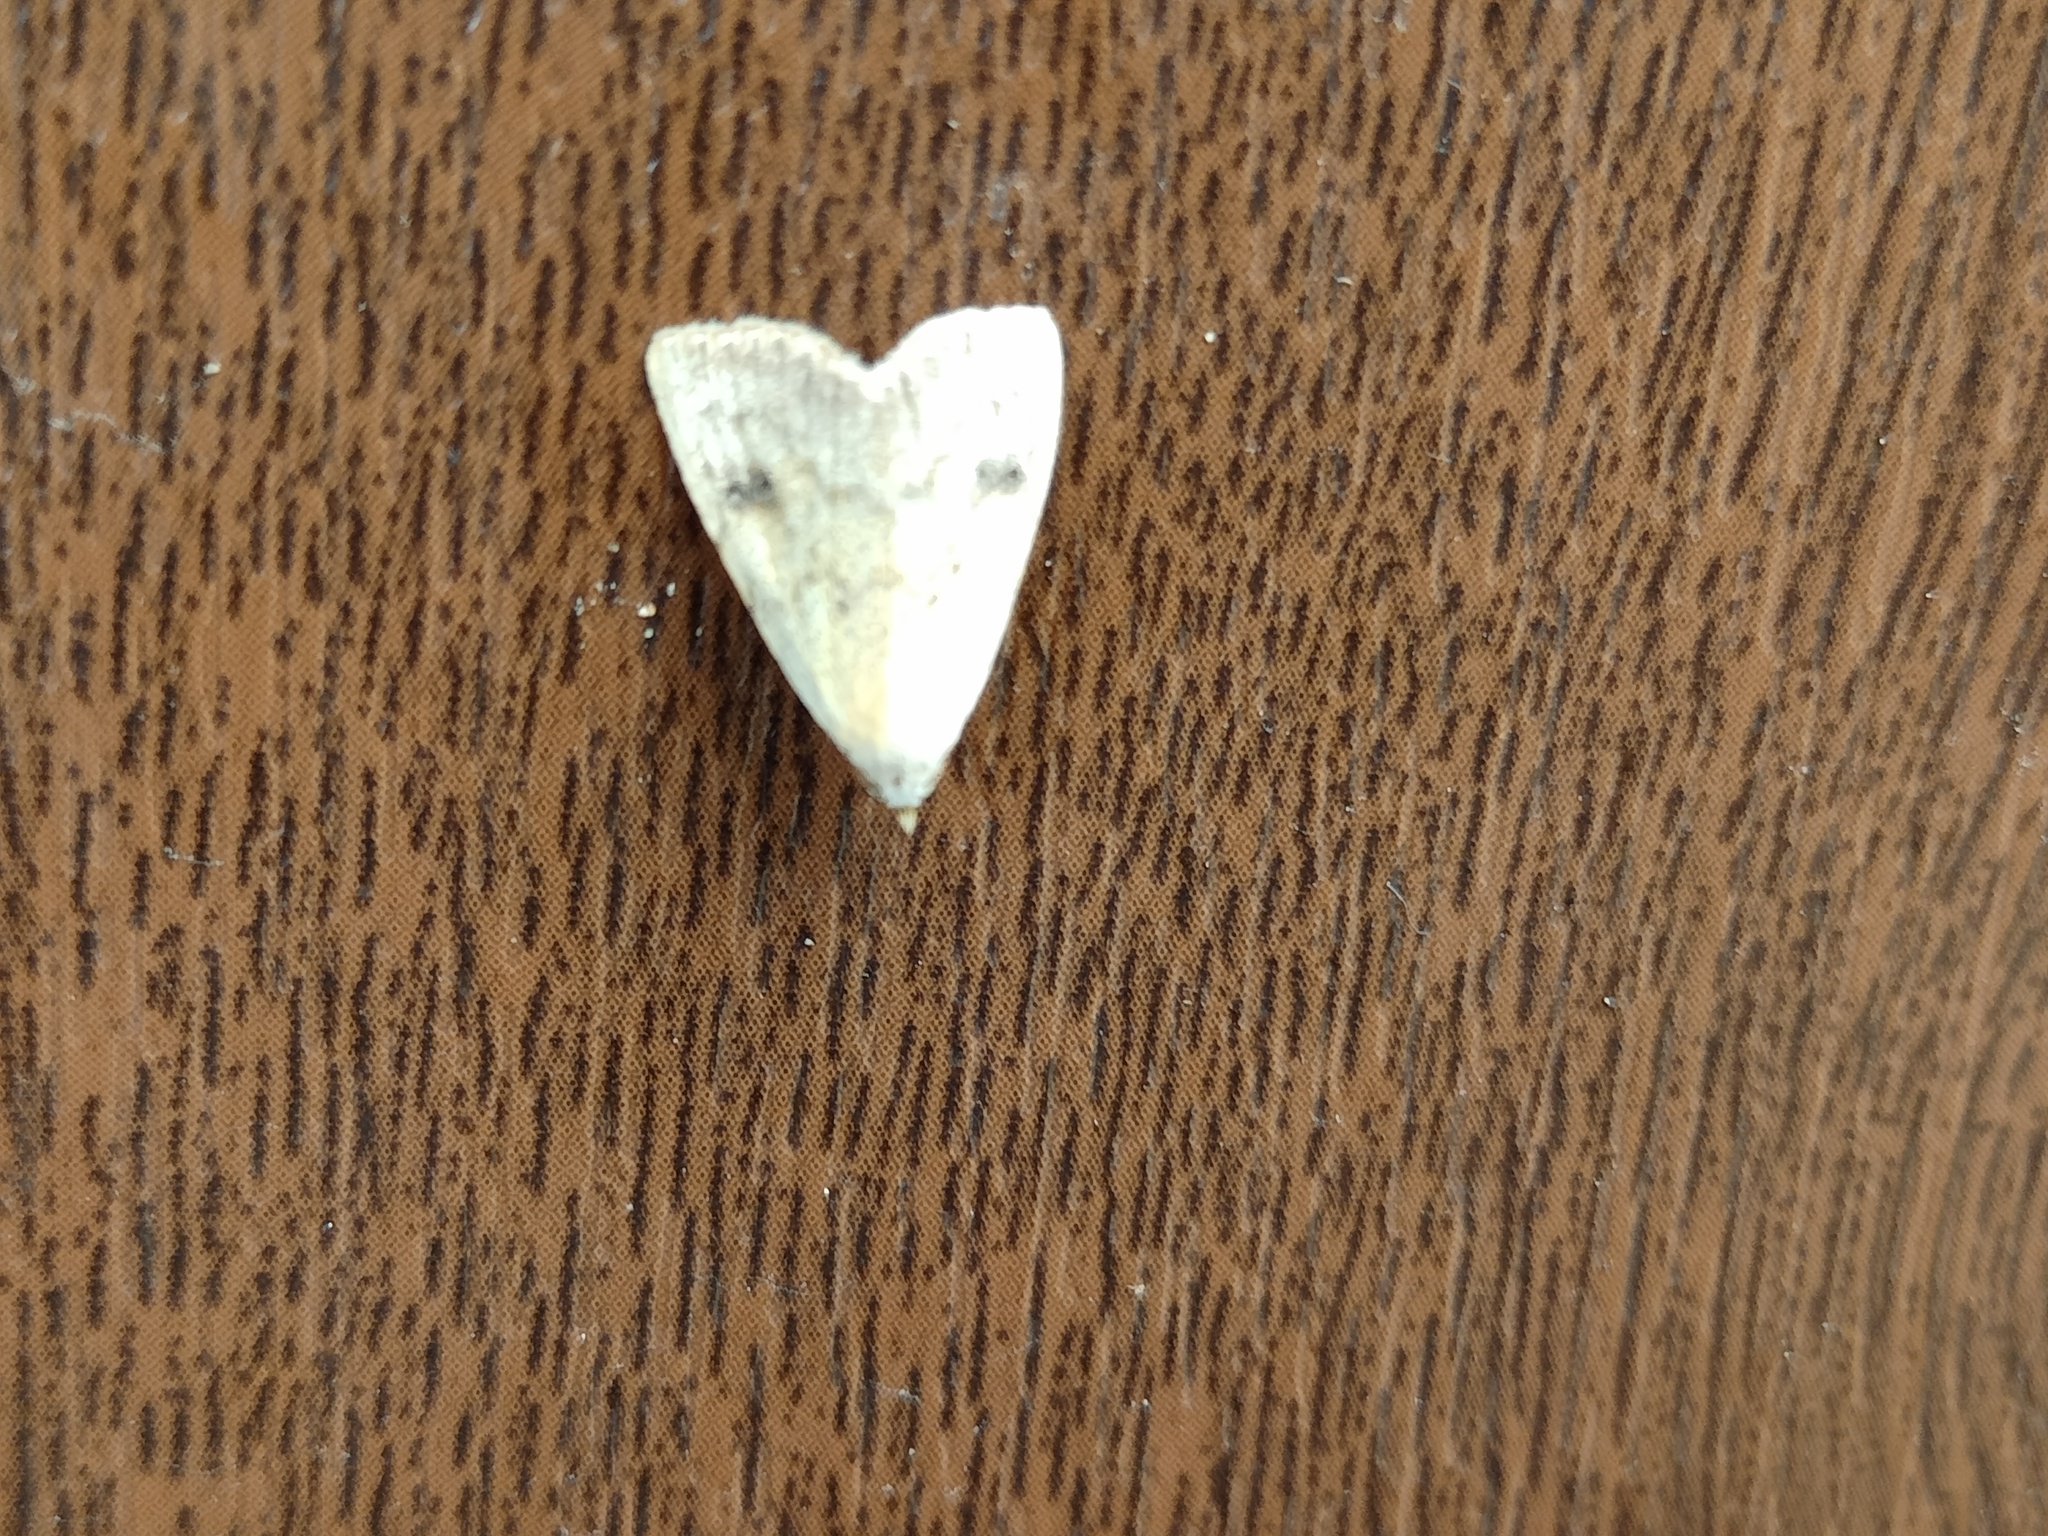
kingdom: Animalia
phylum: Arthropoda
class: Insecta
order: Lepidoptera
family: Erebidae
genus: Rivula
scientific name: Rivula sericealis
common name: Straw dot
